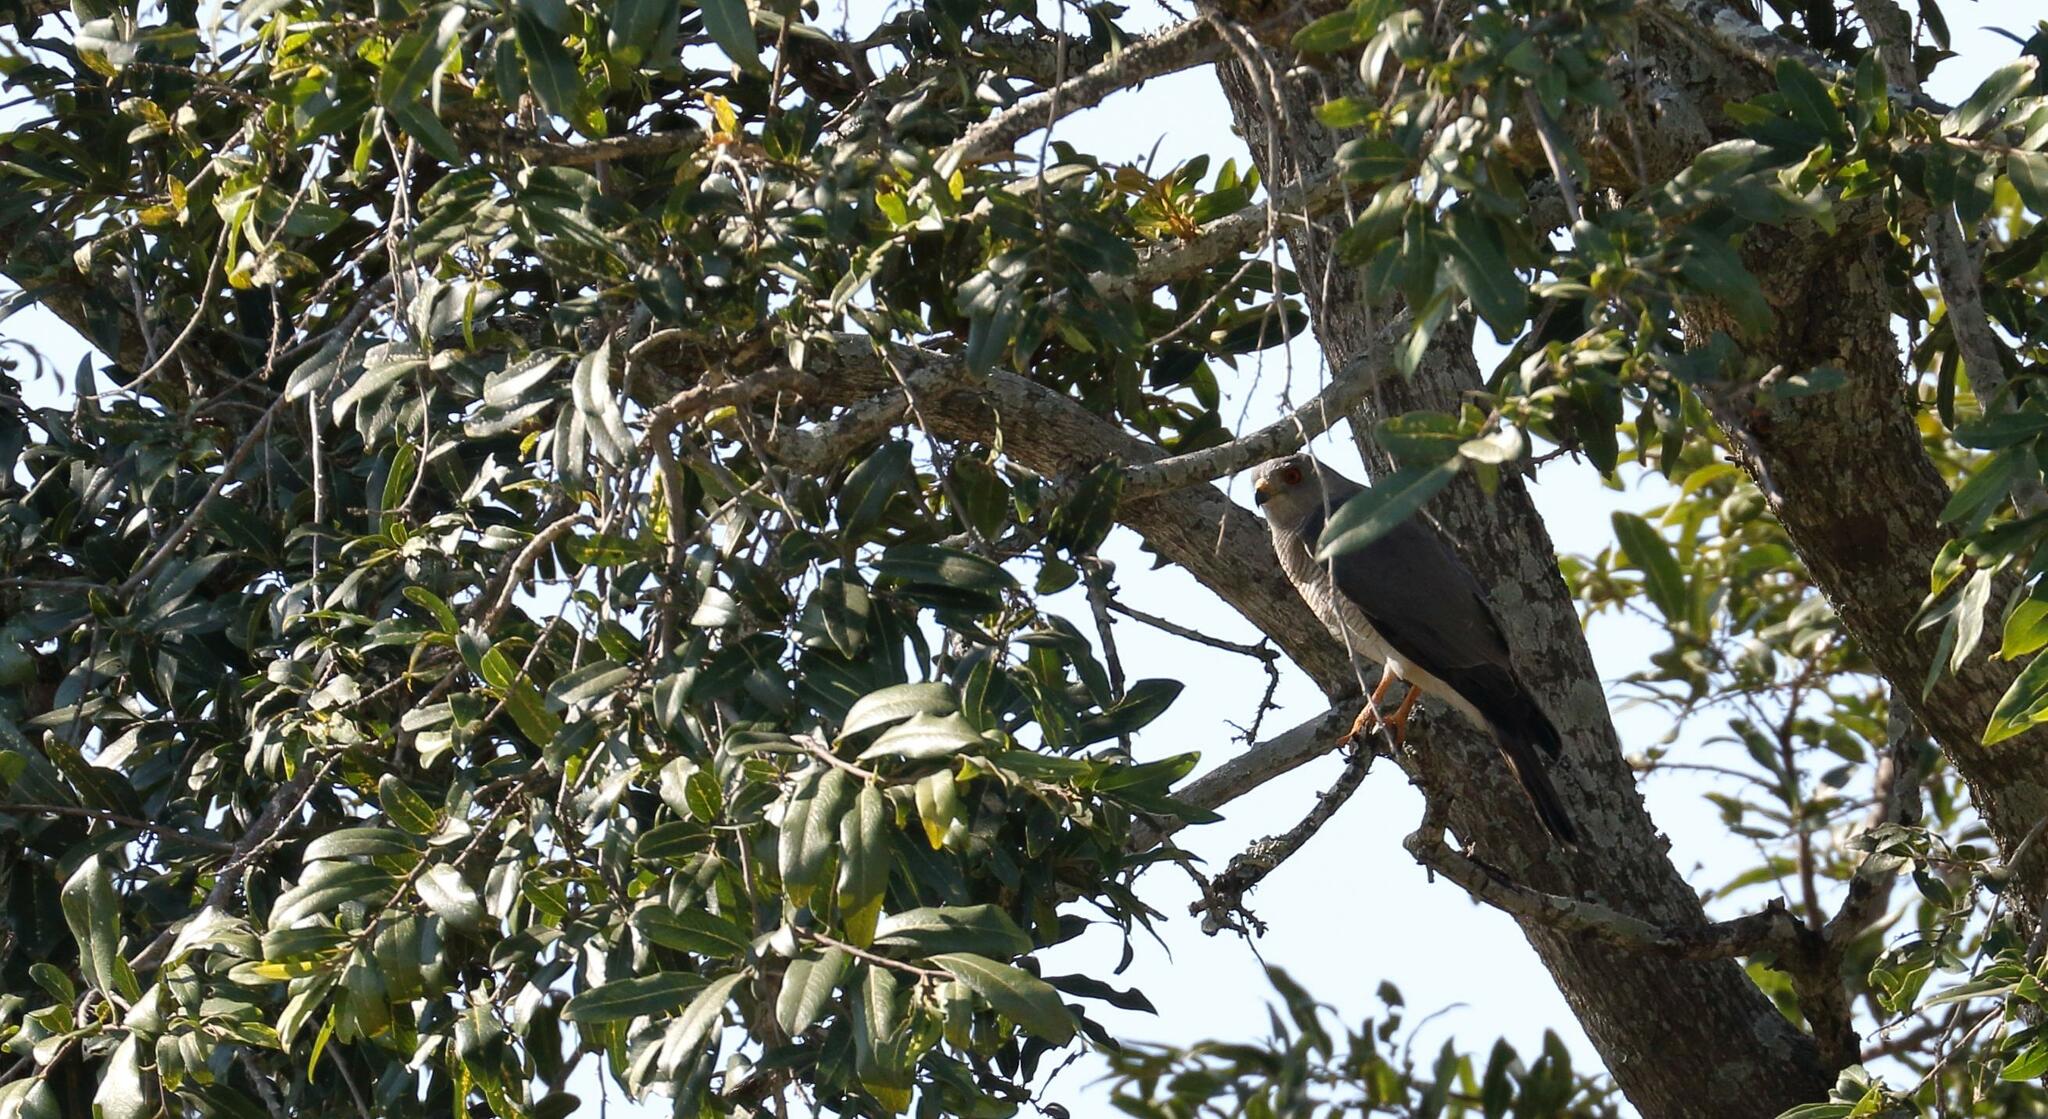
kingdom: Animalia
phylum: Chordata
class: Aves
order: Accipitriformes
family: Accipitridae
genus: Accipiter
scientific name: Accipiter badius
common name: Shikra
